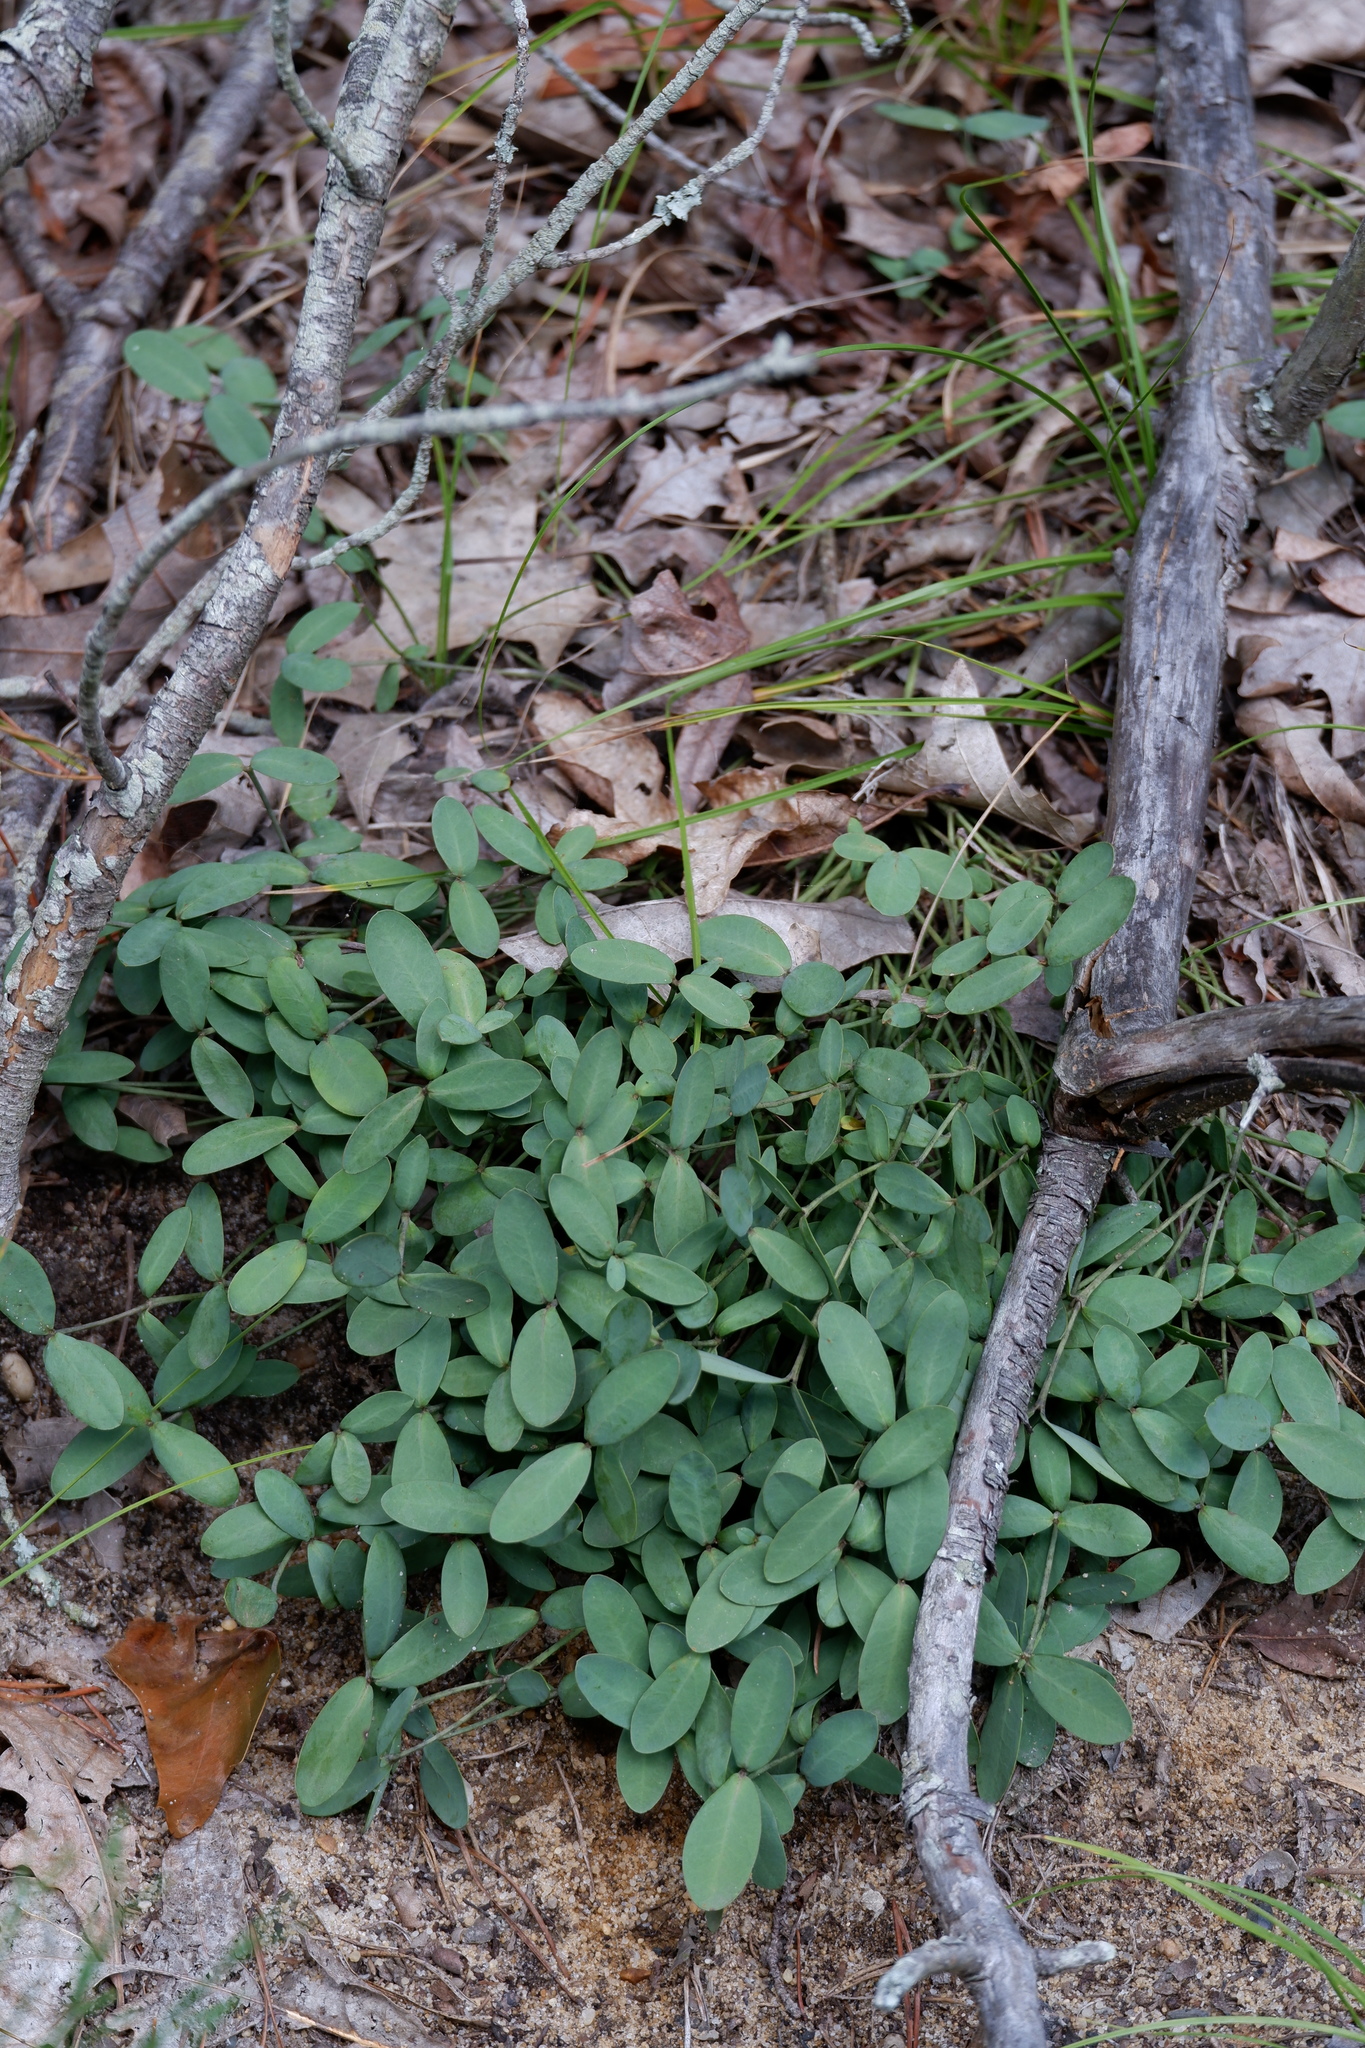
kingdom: Plantae
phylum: Tracheophyta
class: Magnoliopsida
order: Malpighiales
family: Euphorbiaceae
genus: Euphorbia
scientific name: Euphorbia ipecacuanhae
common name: Carolina ipecac
